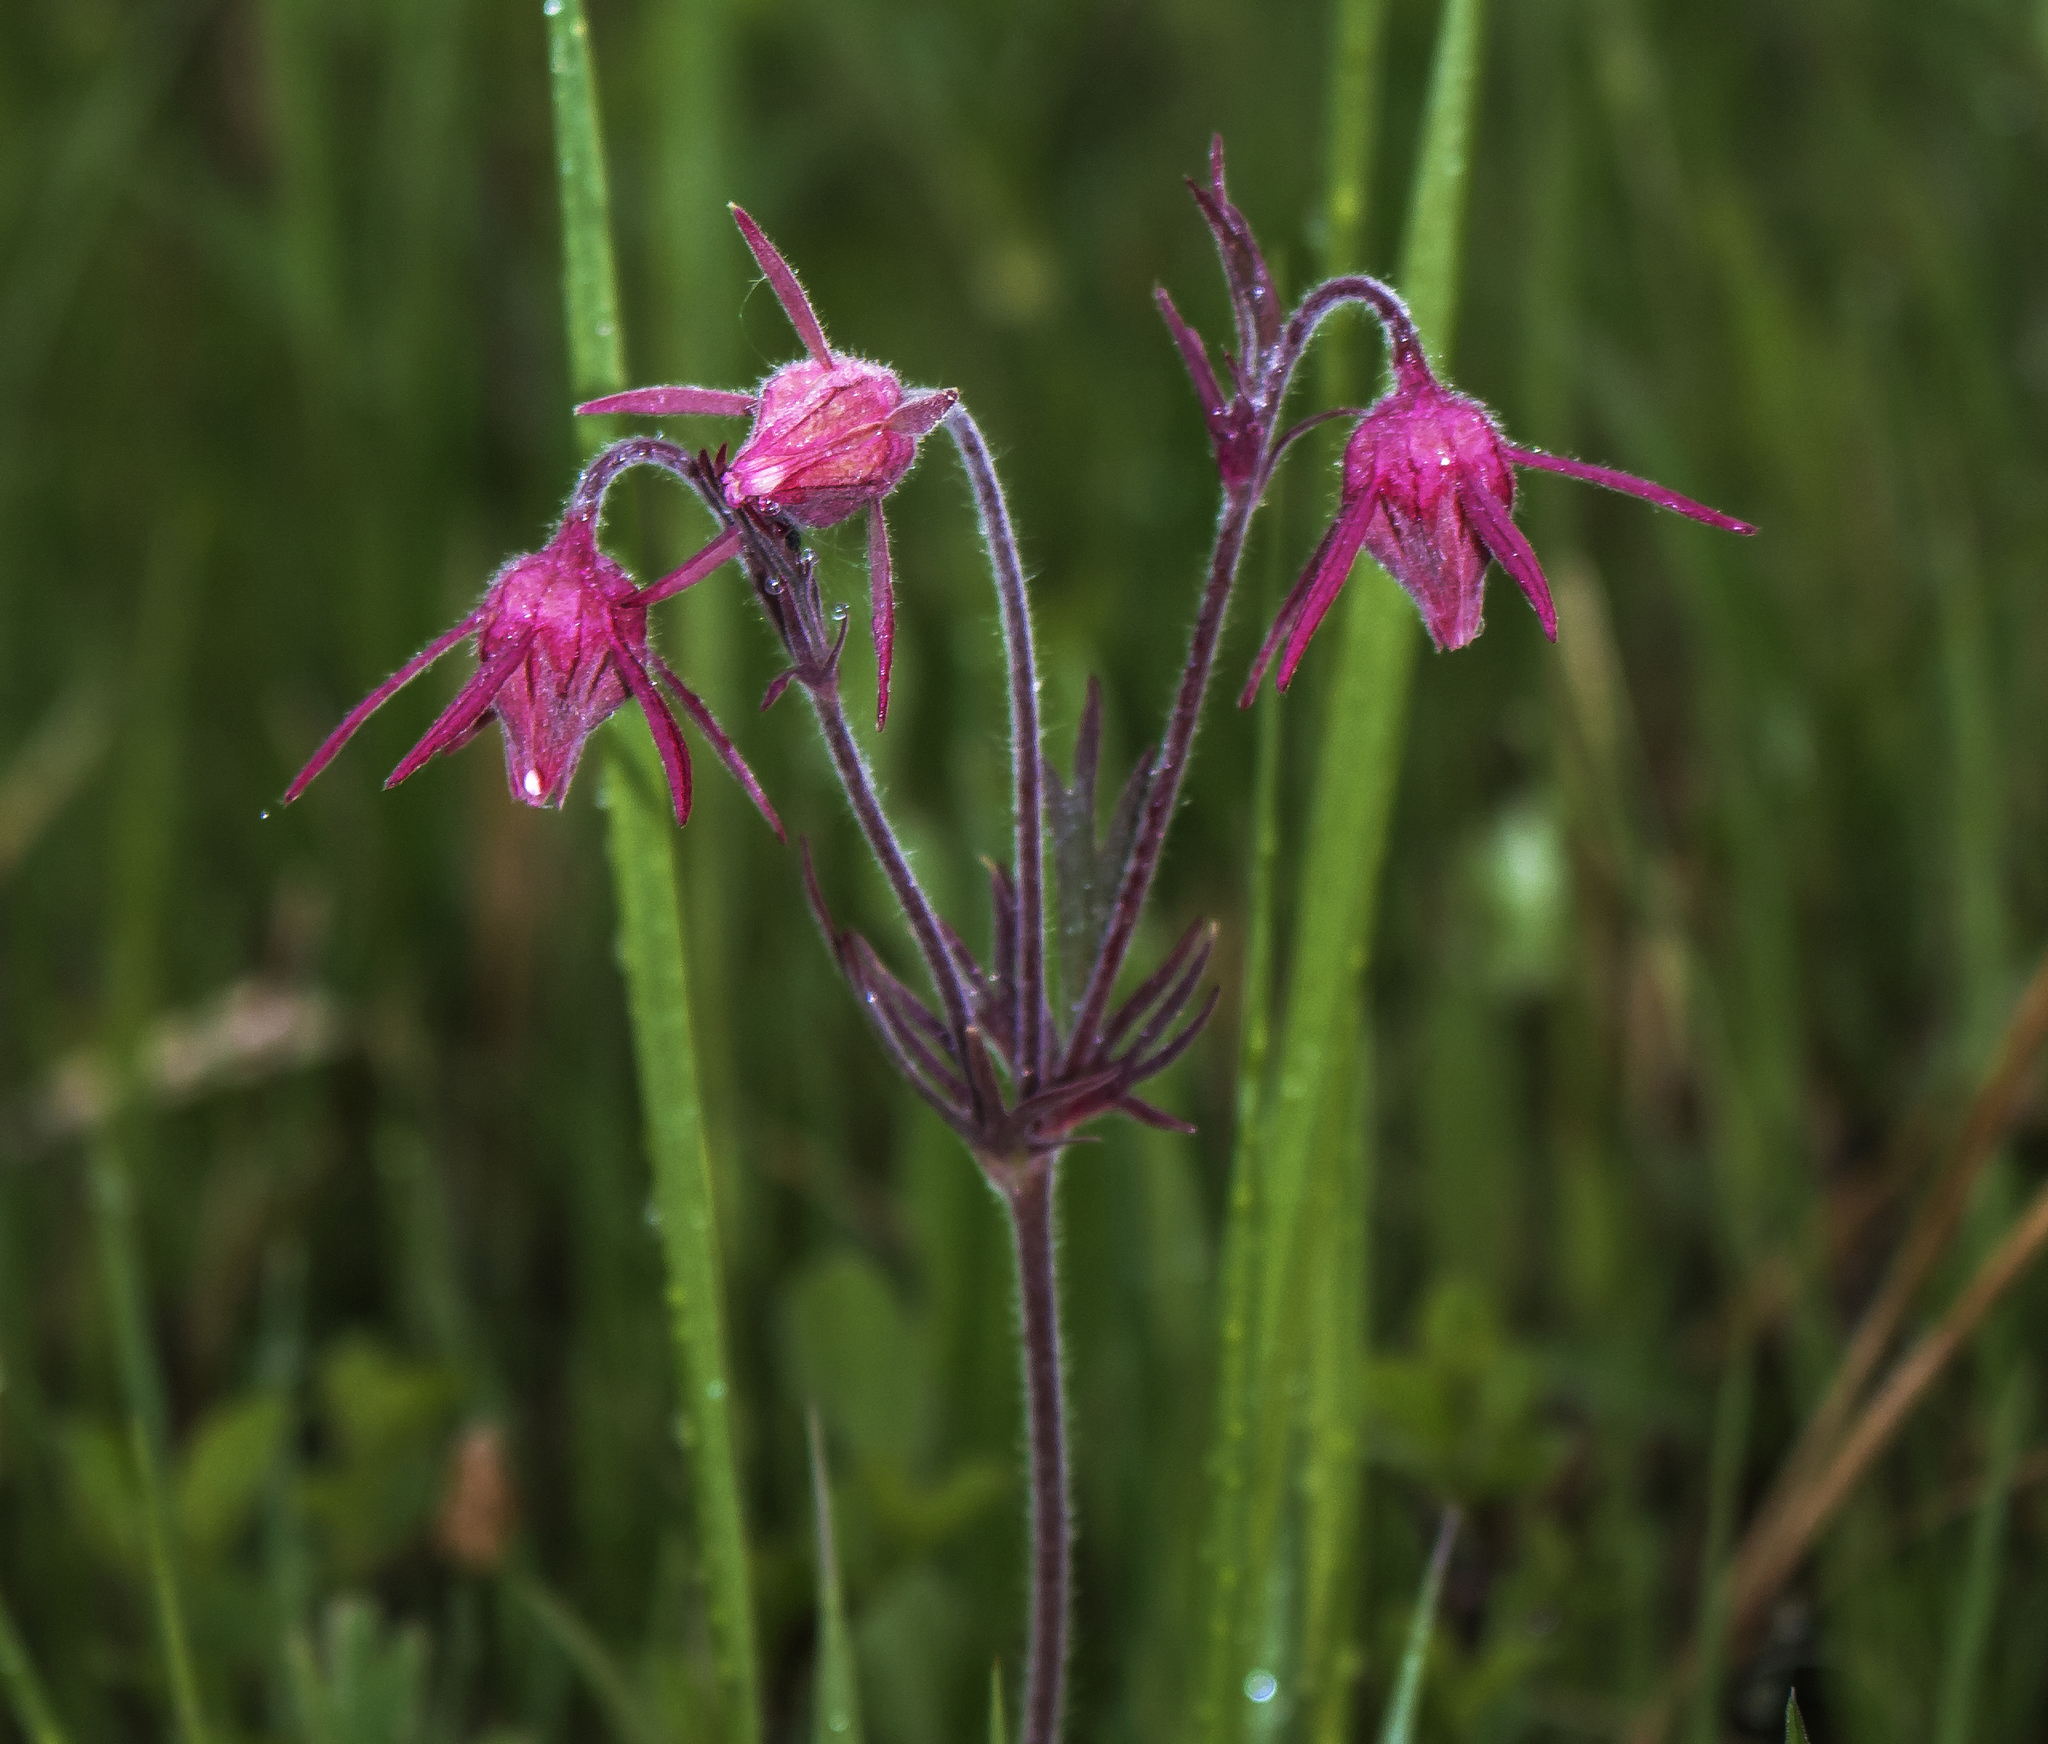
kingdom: Plantae
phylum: Tracheophyta
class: Magnoliopsida
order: Rosales
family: Rosaceae
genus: Geum
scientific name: Geum triflorum
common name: Old man's whiskers
